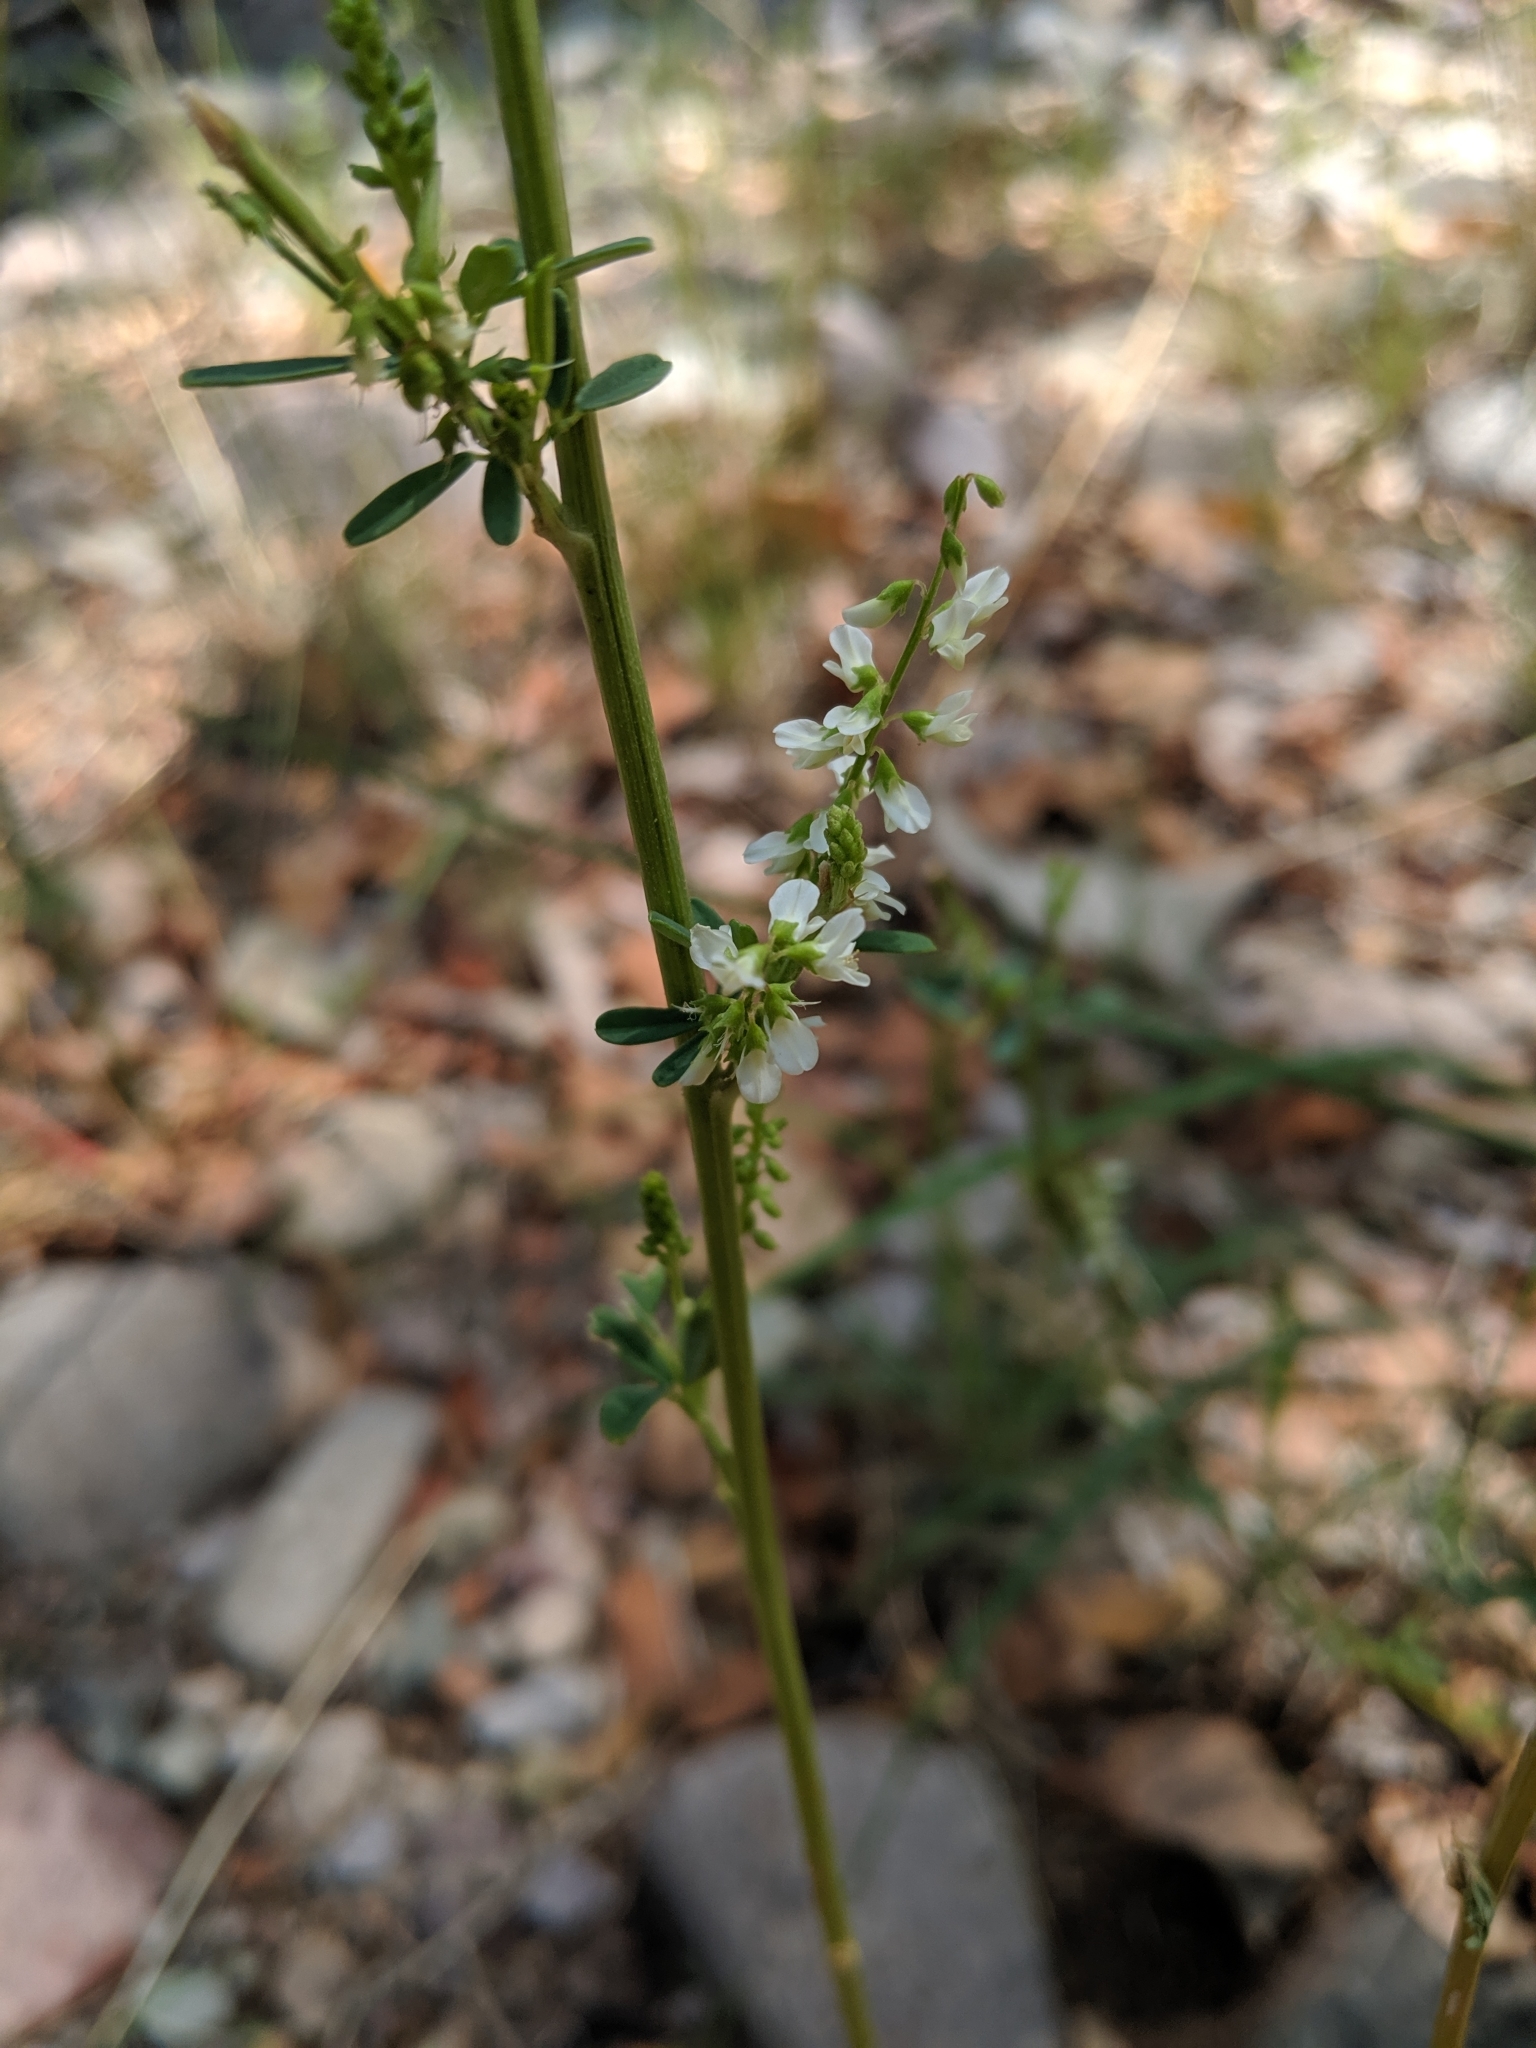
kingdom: Plantae
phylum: Tracheophyta
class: Magnoliopsida
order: Fabales
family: Fabaceae
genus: Melilotus
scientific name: Melilotus albus
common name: White melilot
